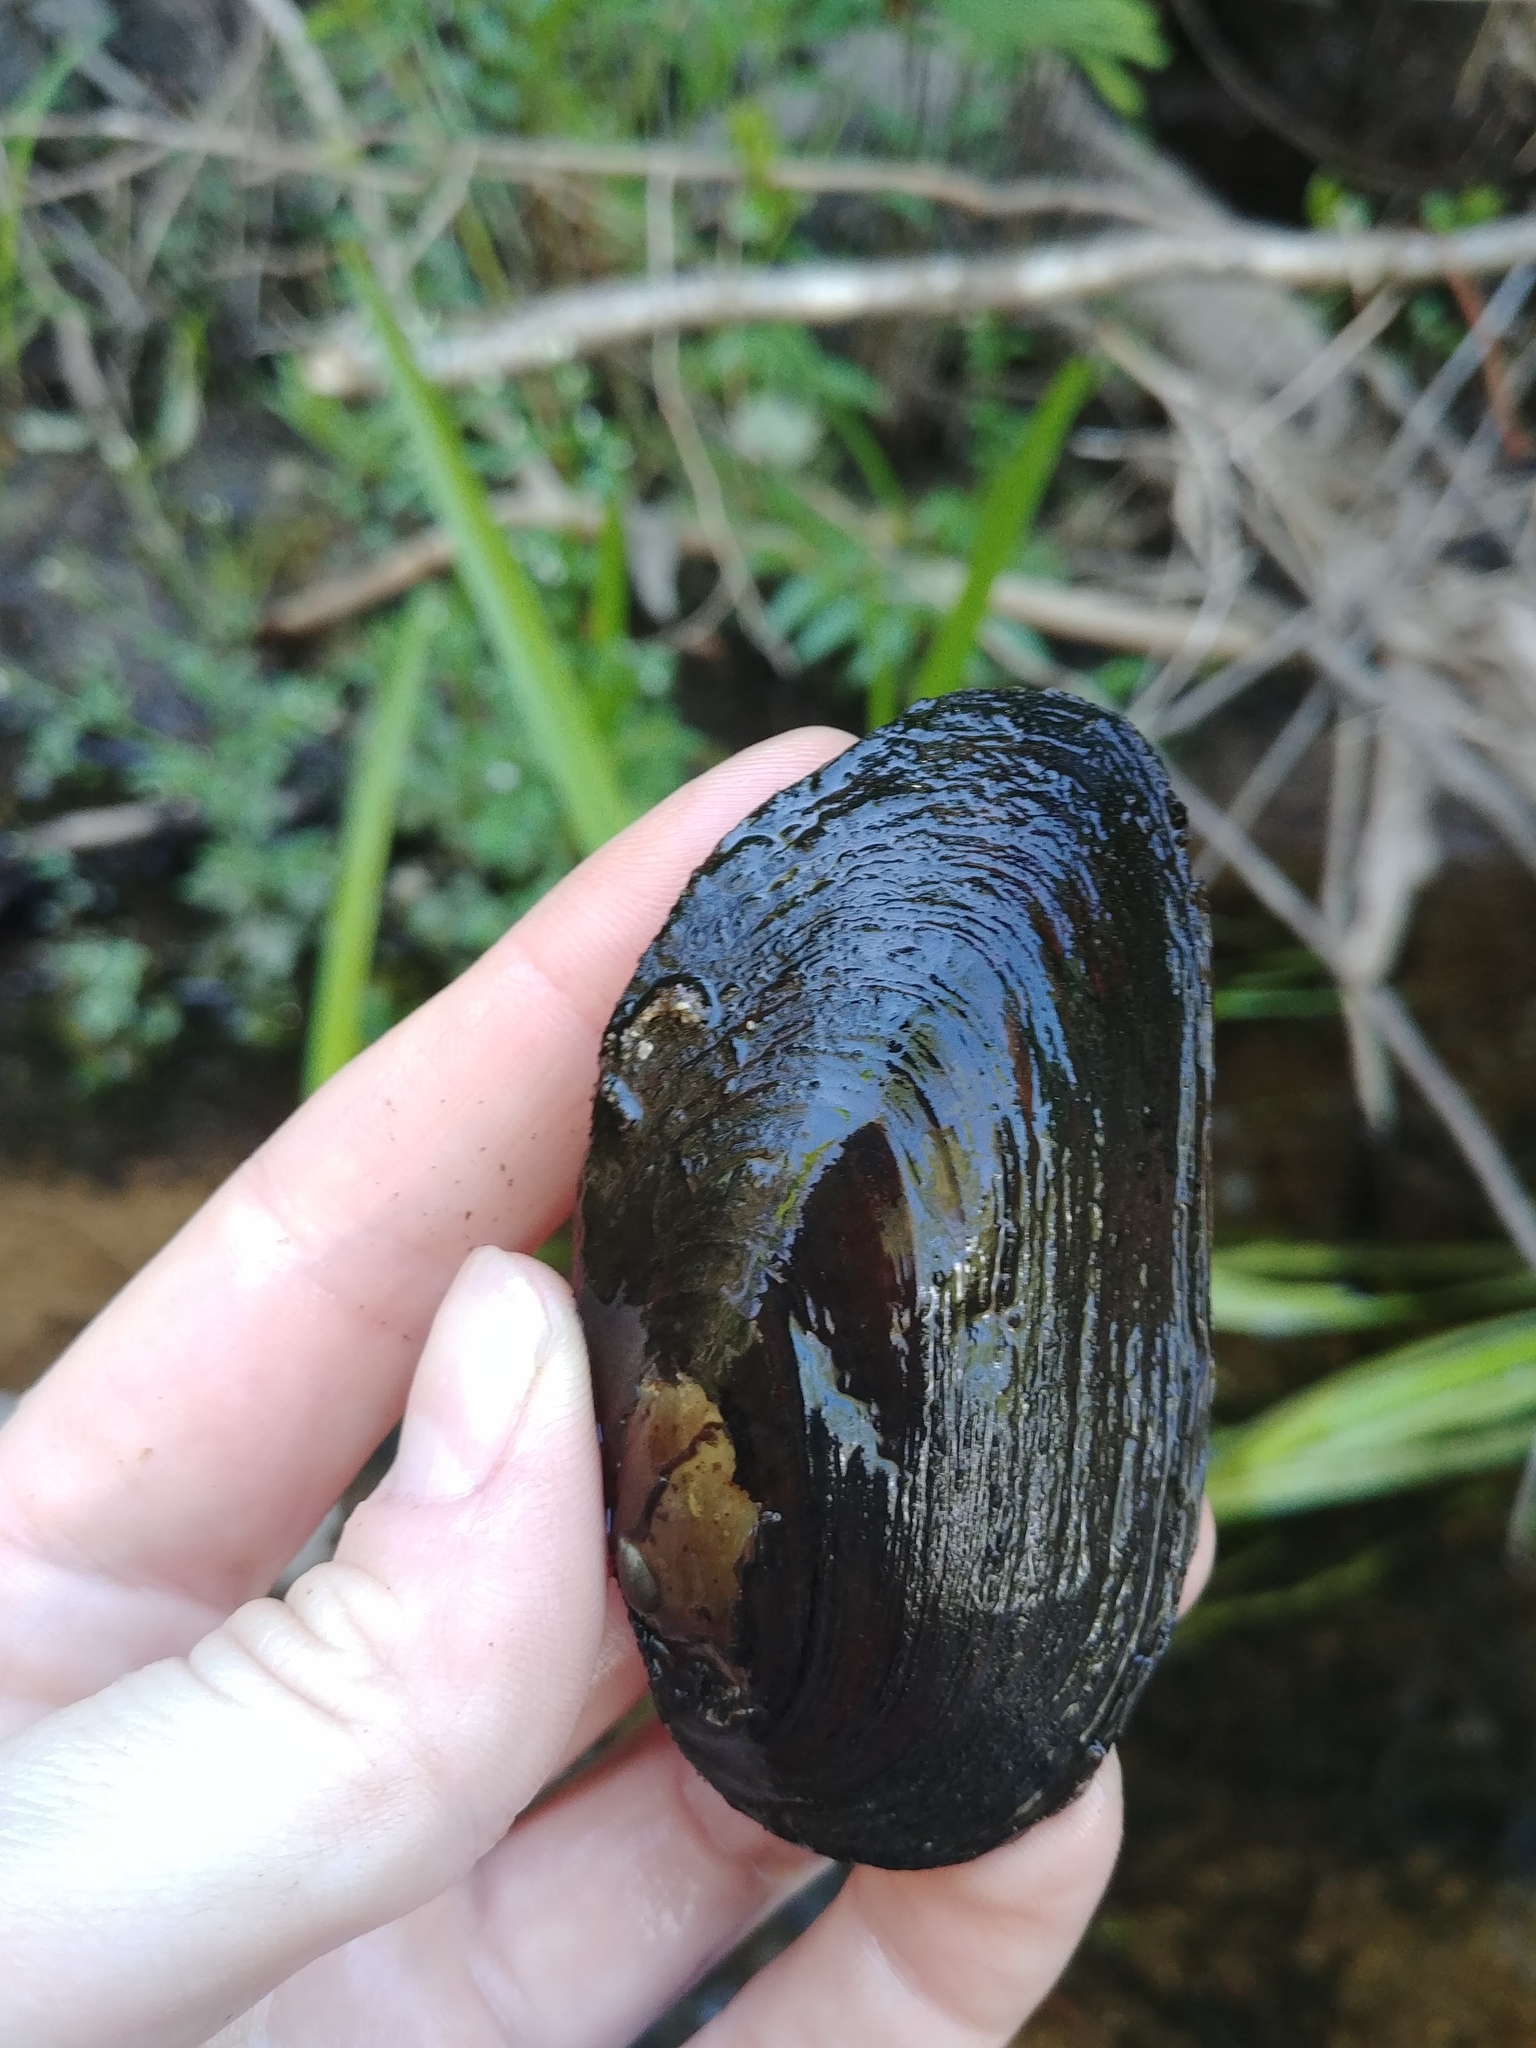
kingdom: Animalia
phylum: Mollusca
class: Bivalvia
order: Unionida
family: Unionidae
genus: Elliptio
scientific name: Elliptio complanata
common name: Eastern elliptio
